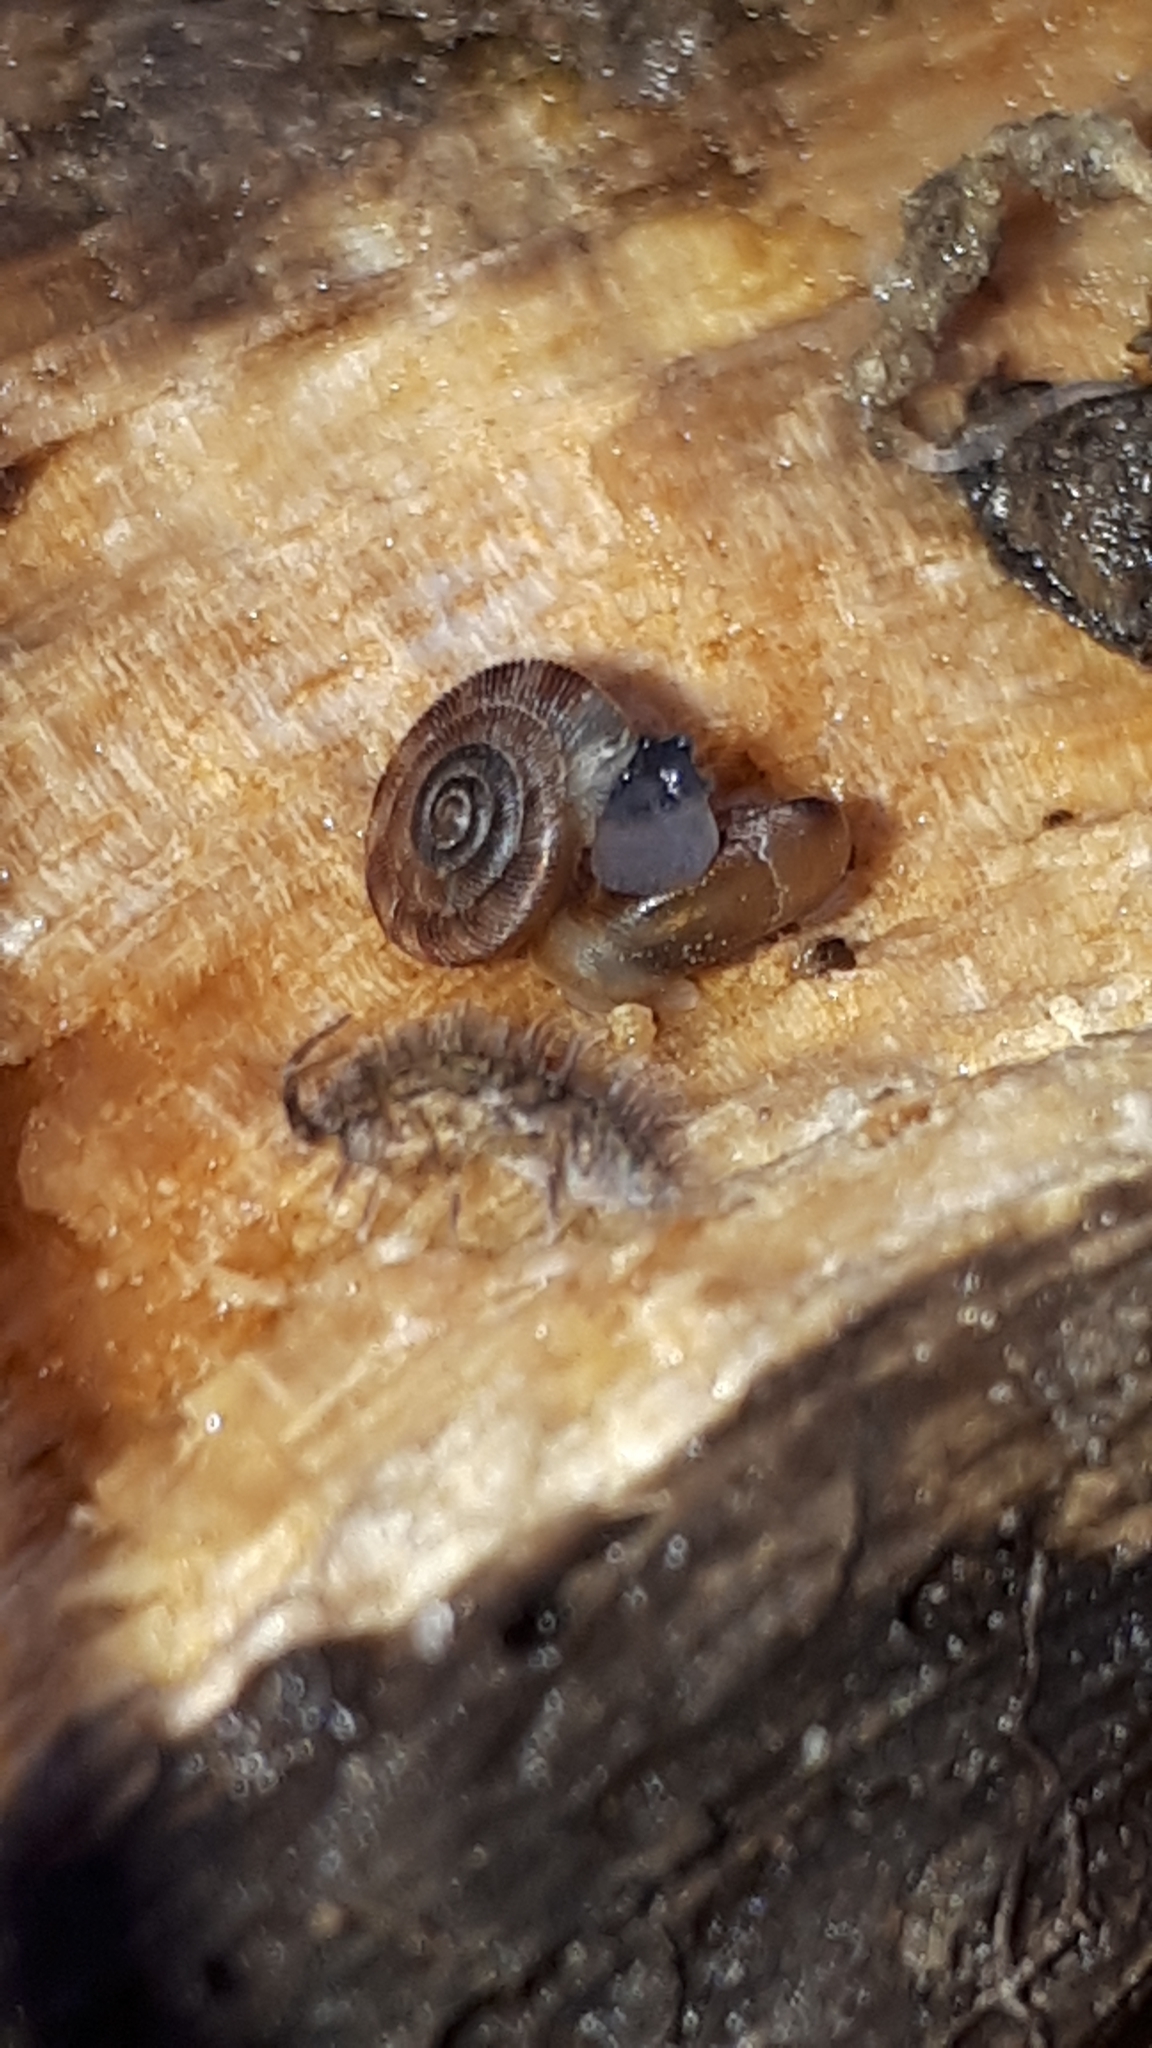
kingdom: Animalia
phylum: Mollusca
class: Gastropoda
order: Stylommatophora
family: Discidae
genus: Discus
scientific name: Discus rotundatus
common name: Rounded snail
